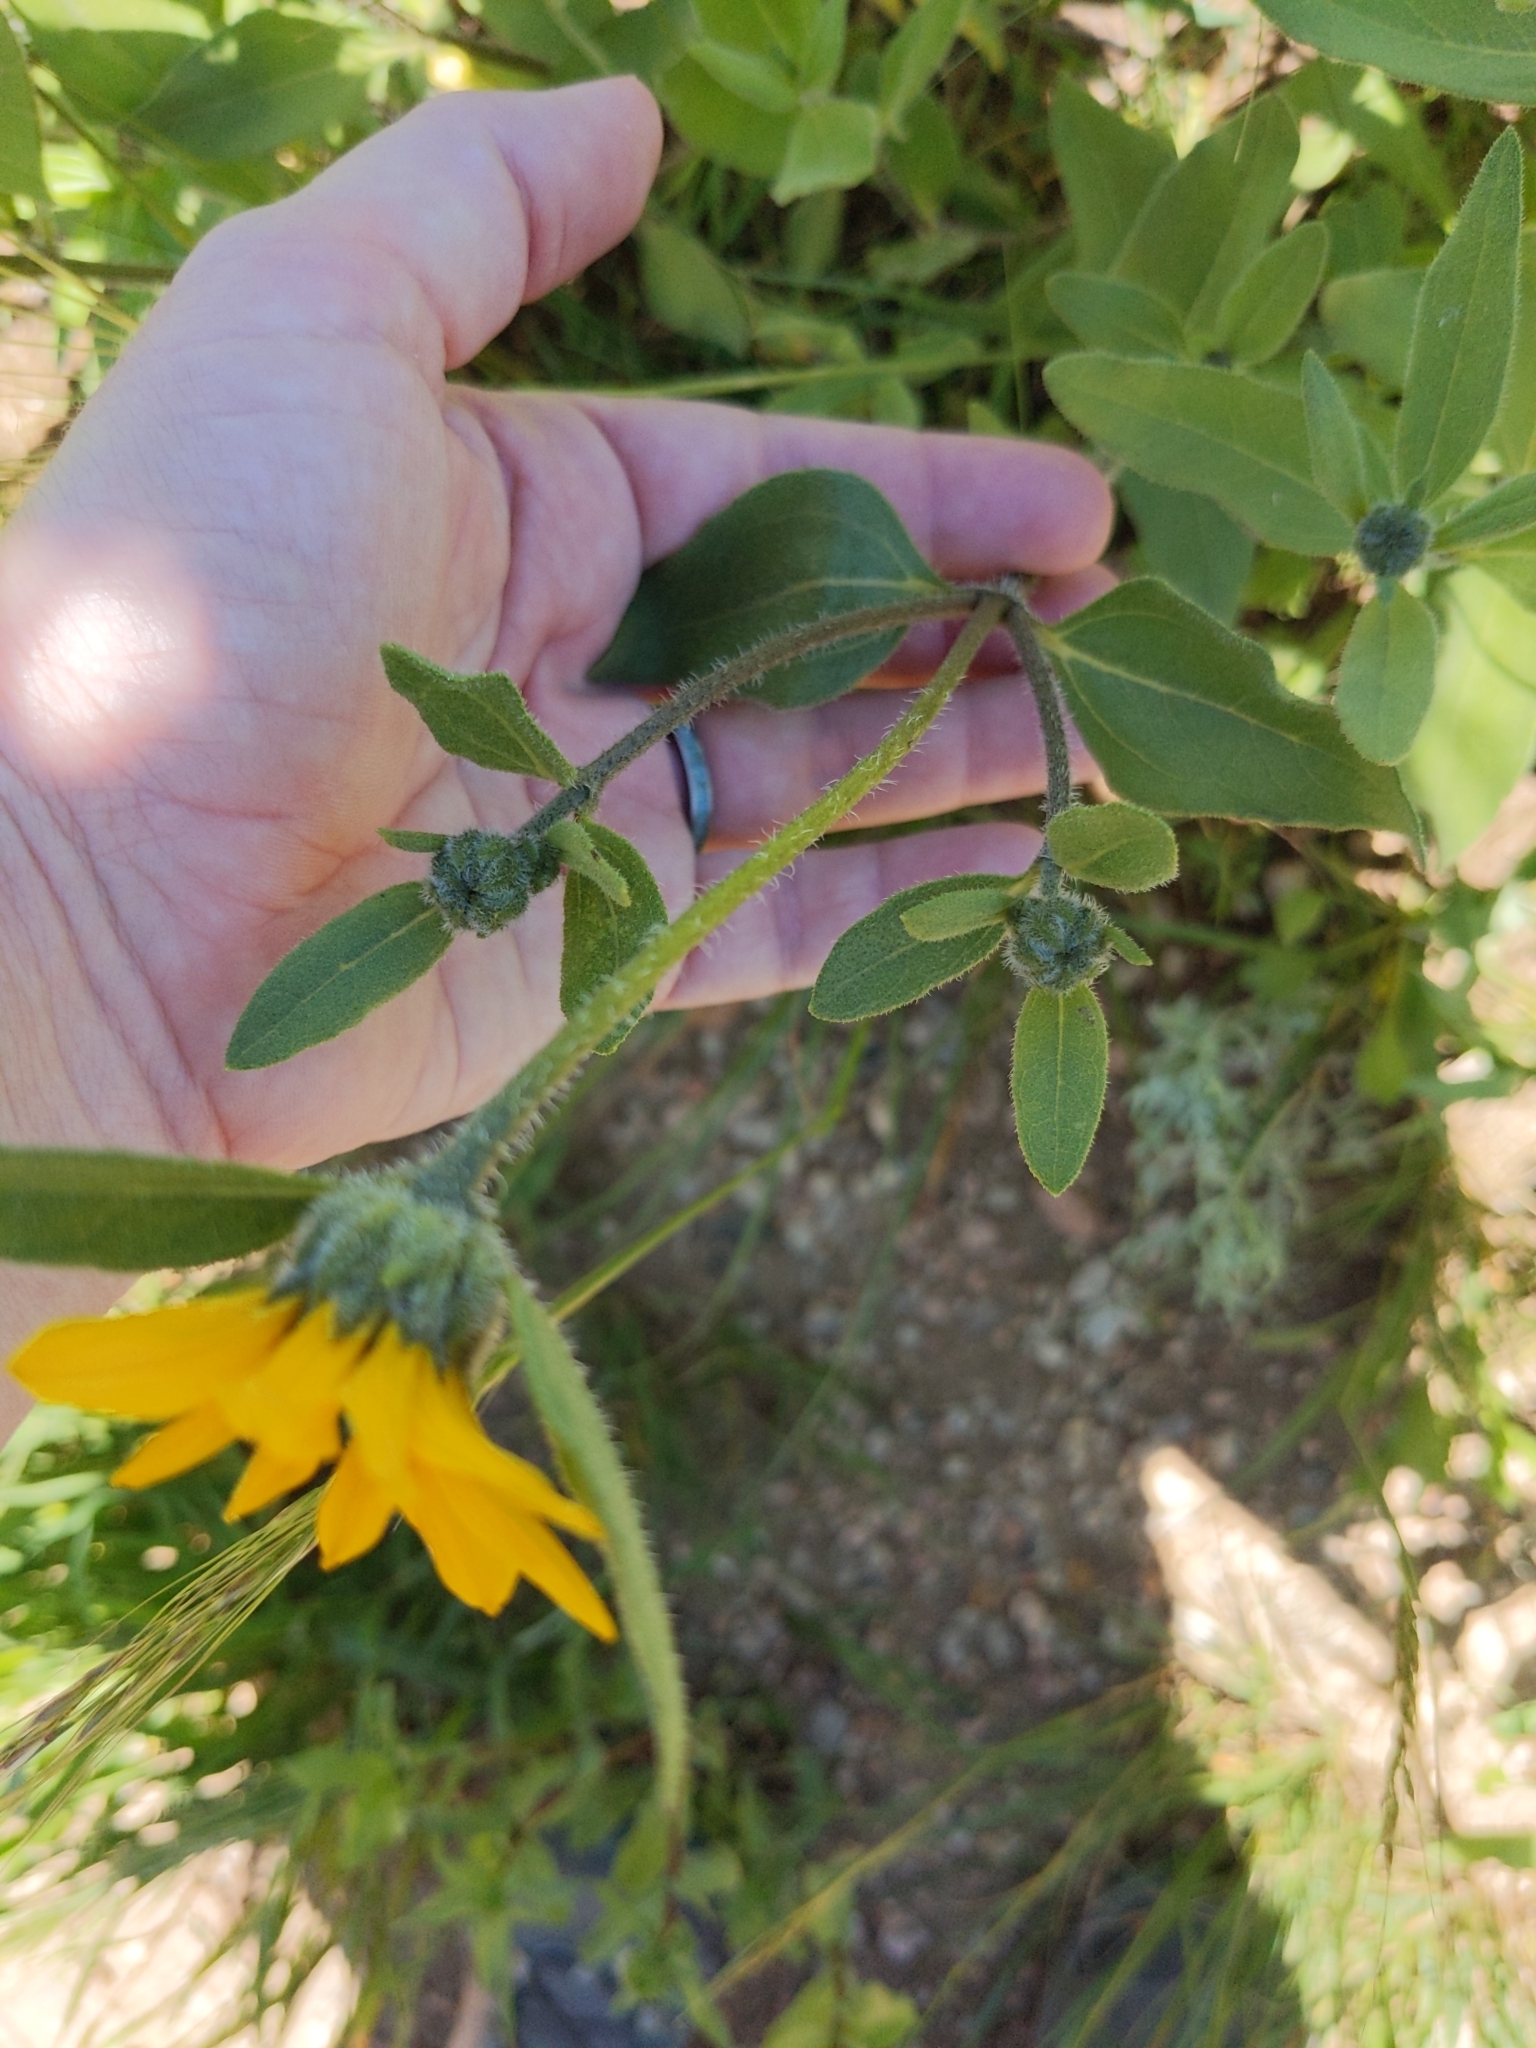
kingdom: Plantae
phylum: Tracheophyta
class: Magnoliopsida
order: Asterales
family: Asteraceae
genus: Helianthus
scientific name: Helianthus pumilus
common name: Dwarf sunflower
